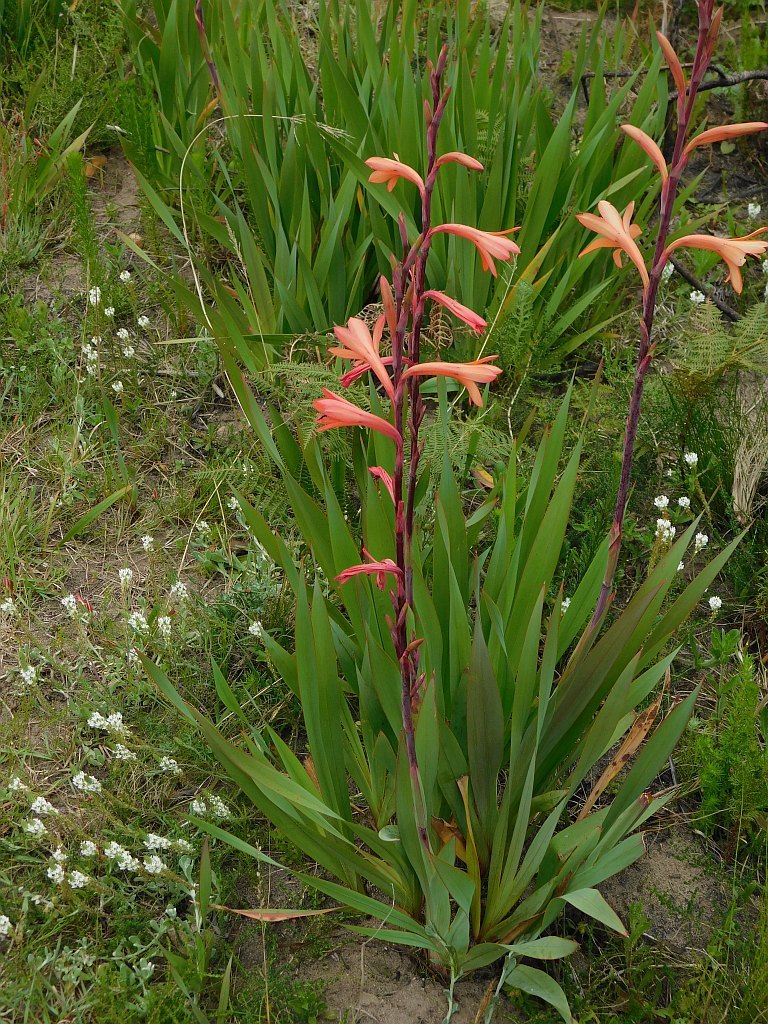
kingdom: Plantae
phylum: Tracheophyta
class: Liliopsida
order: Asparagales
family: Iridaceae
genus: Watsonia
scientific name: Watsonia meriana
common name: Bulbil bugle-lily
